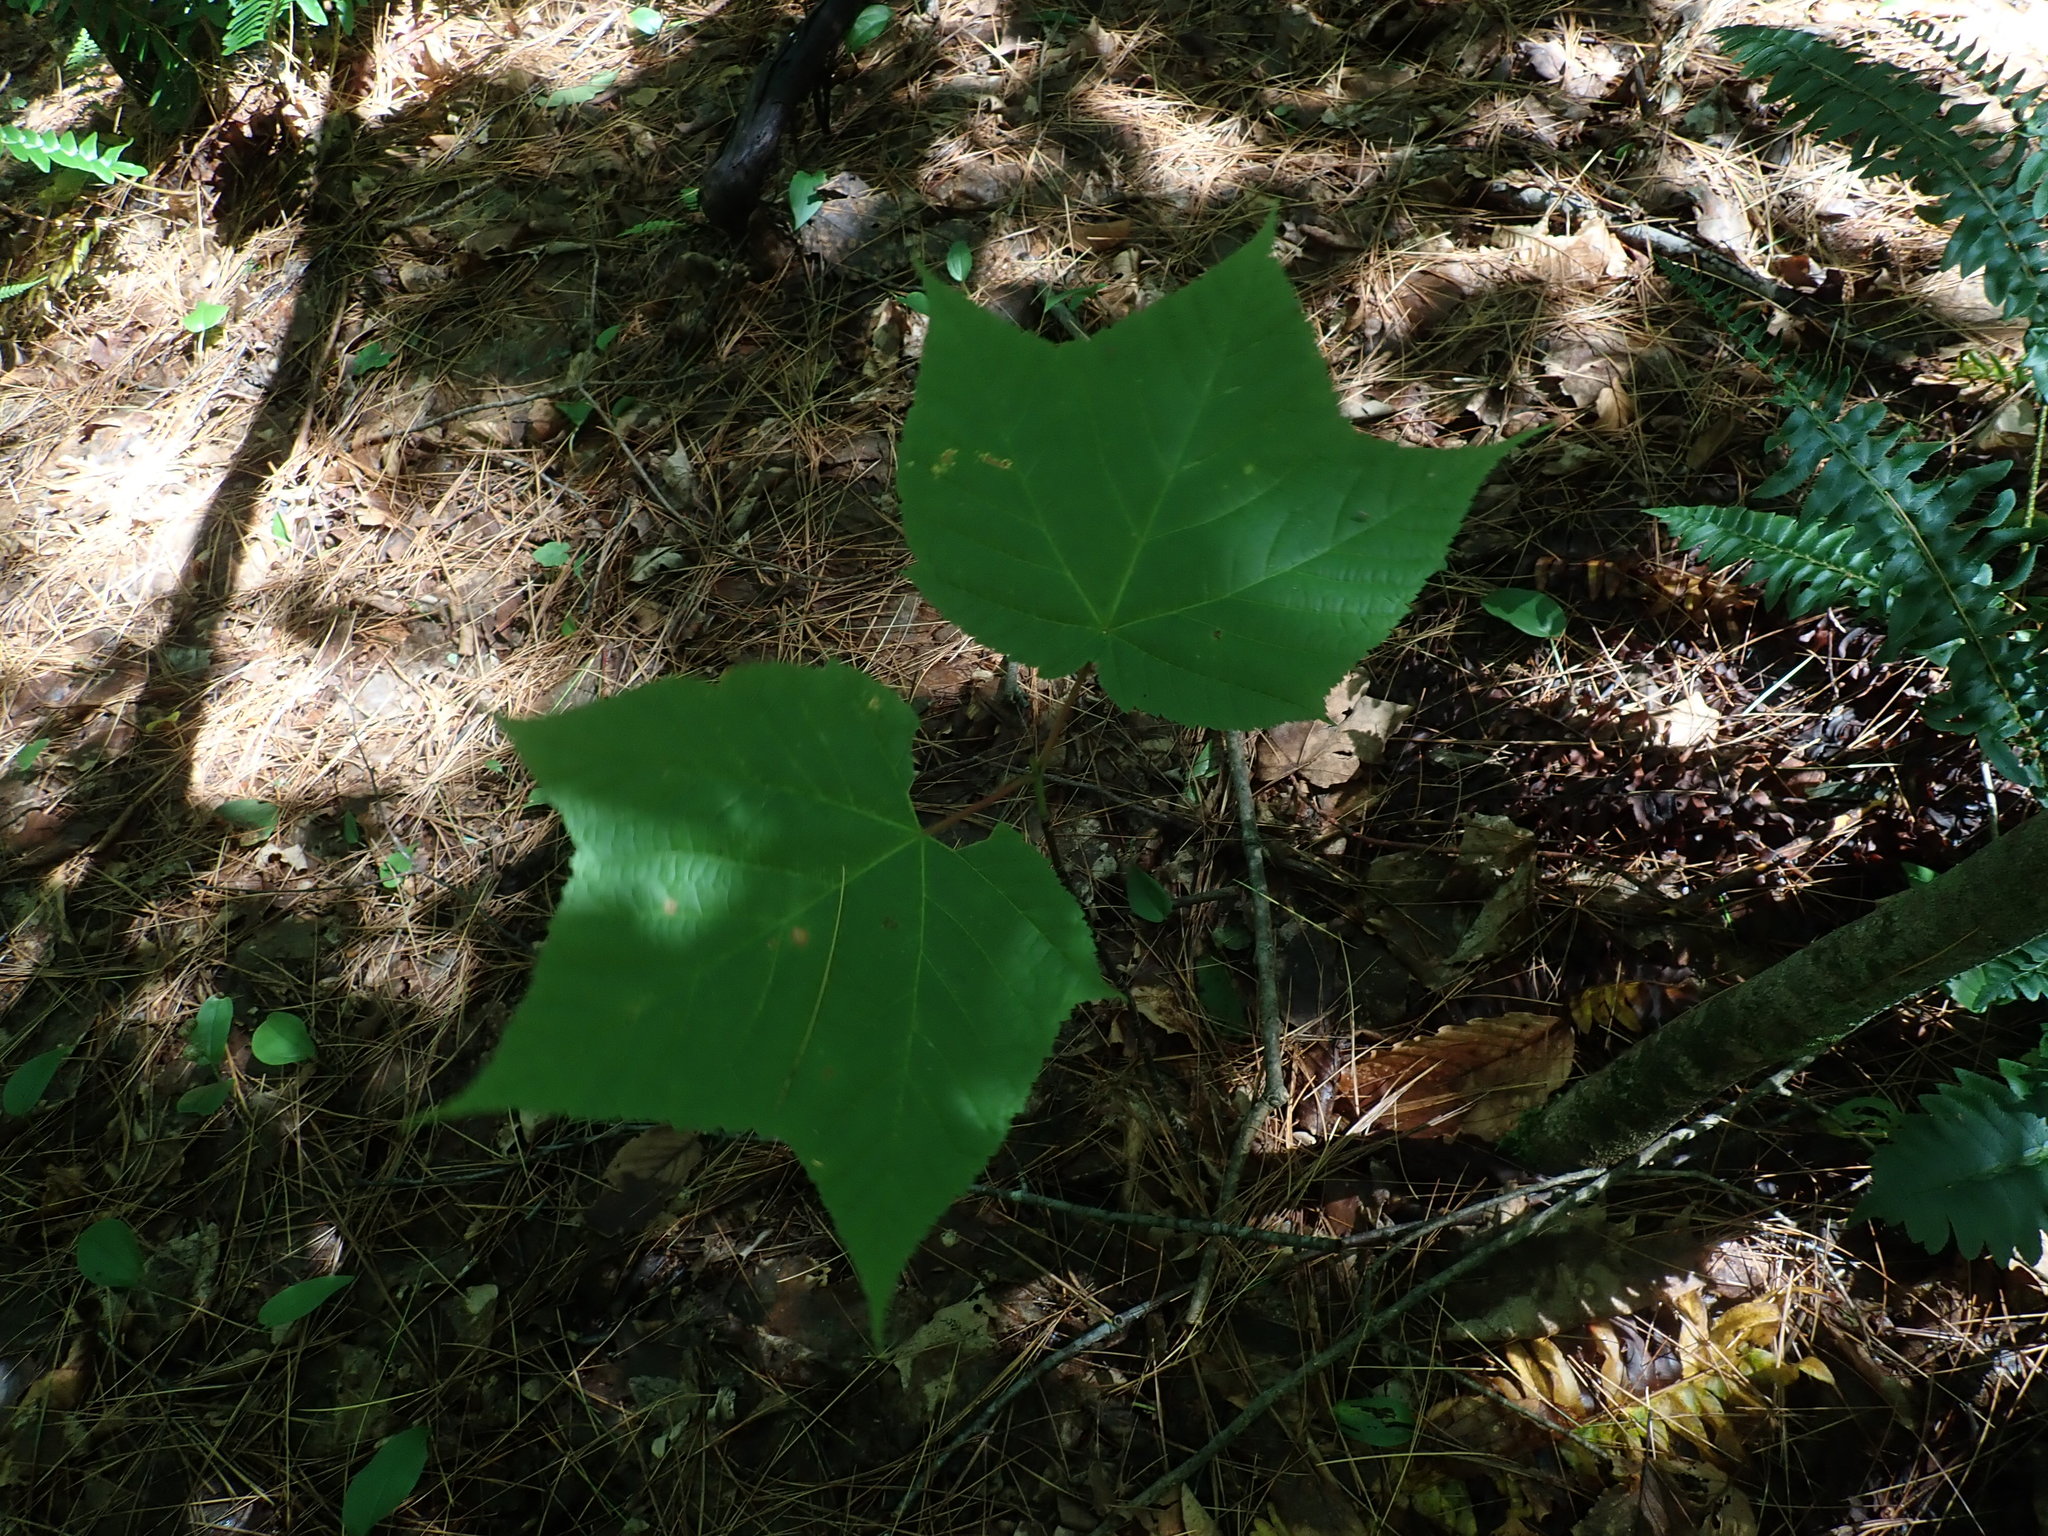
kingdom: Plantae
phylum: Tracheophyta
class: Magnoliopsida
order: Sapindales
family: Sapindaceae
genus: Acer
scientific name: Acer pensylvanicum
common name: Moosewood
